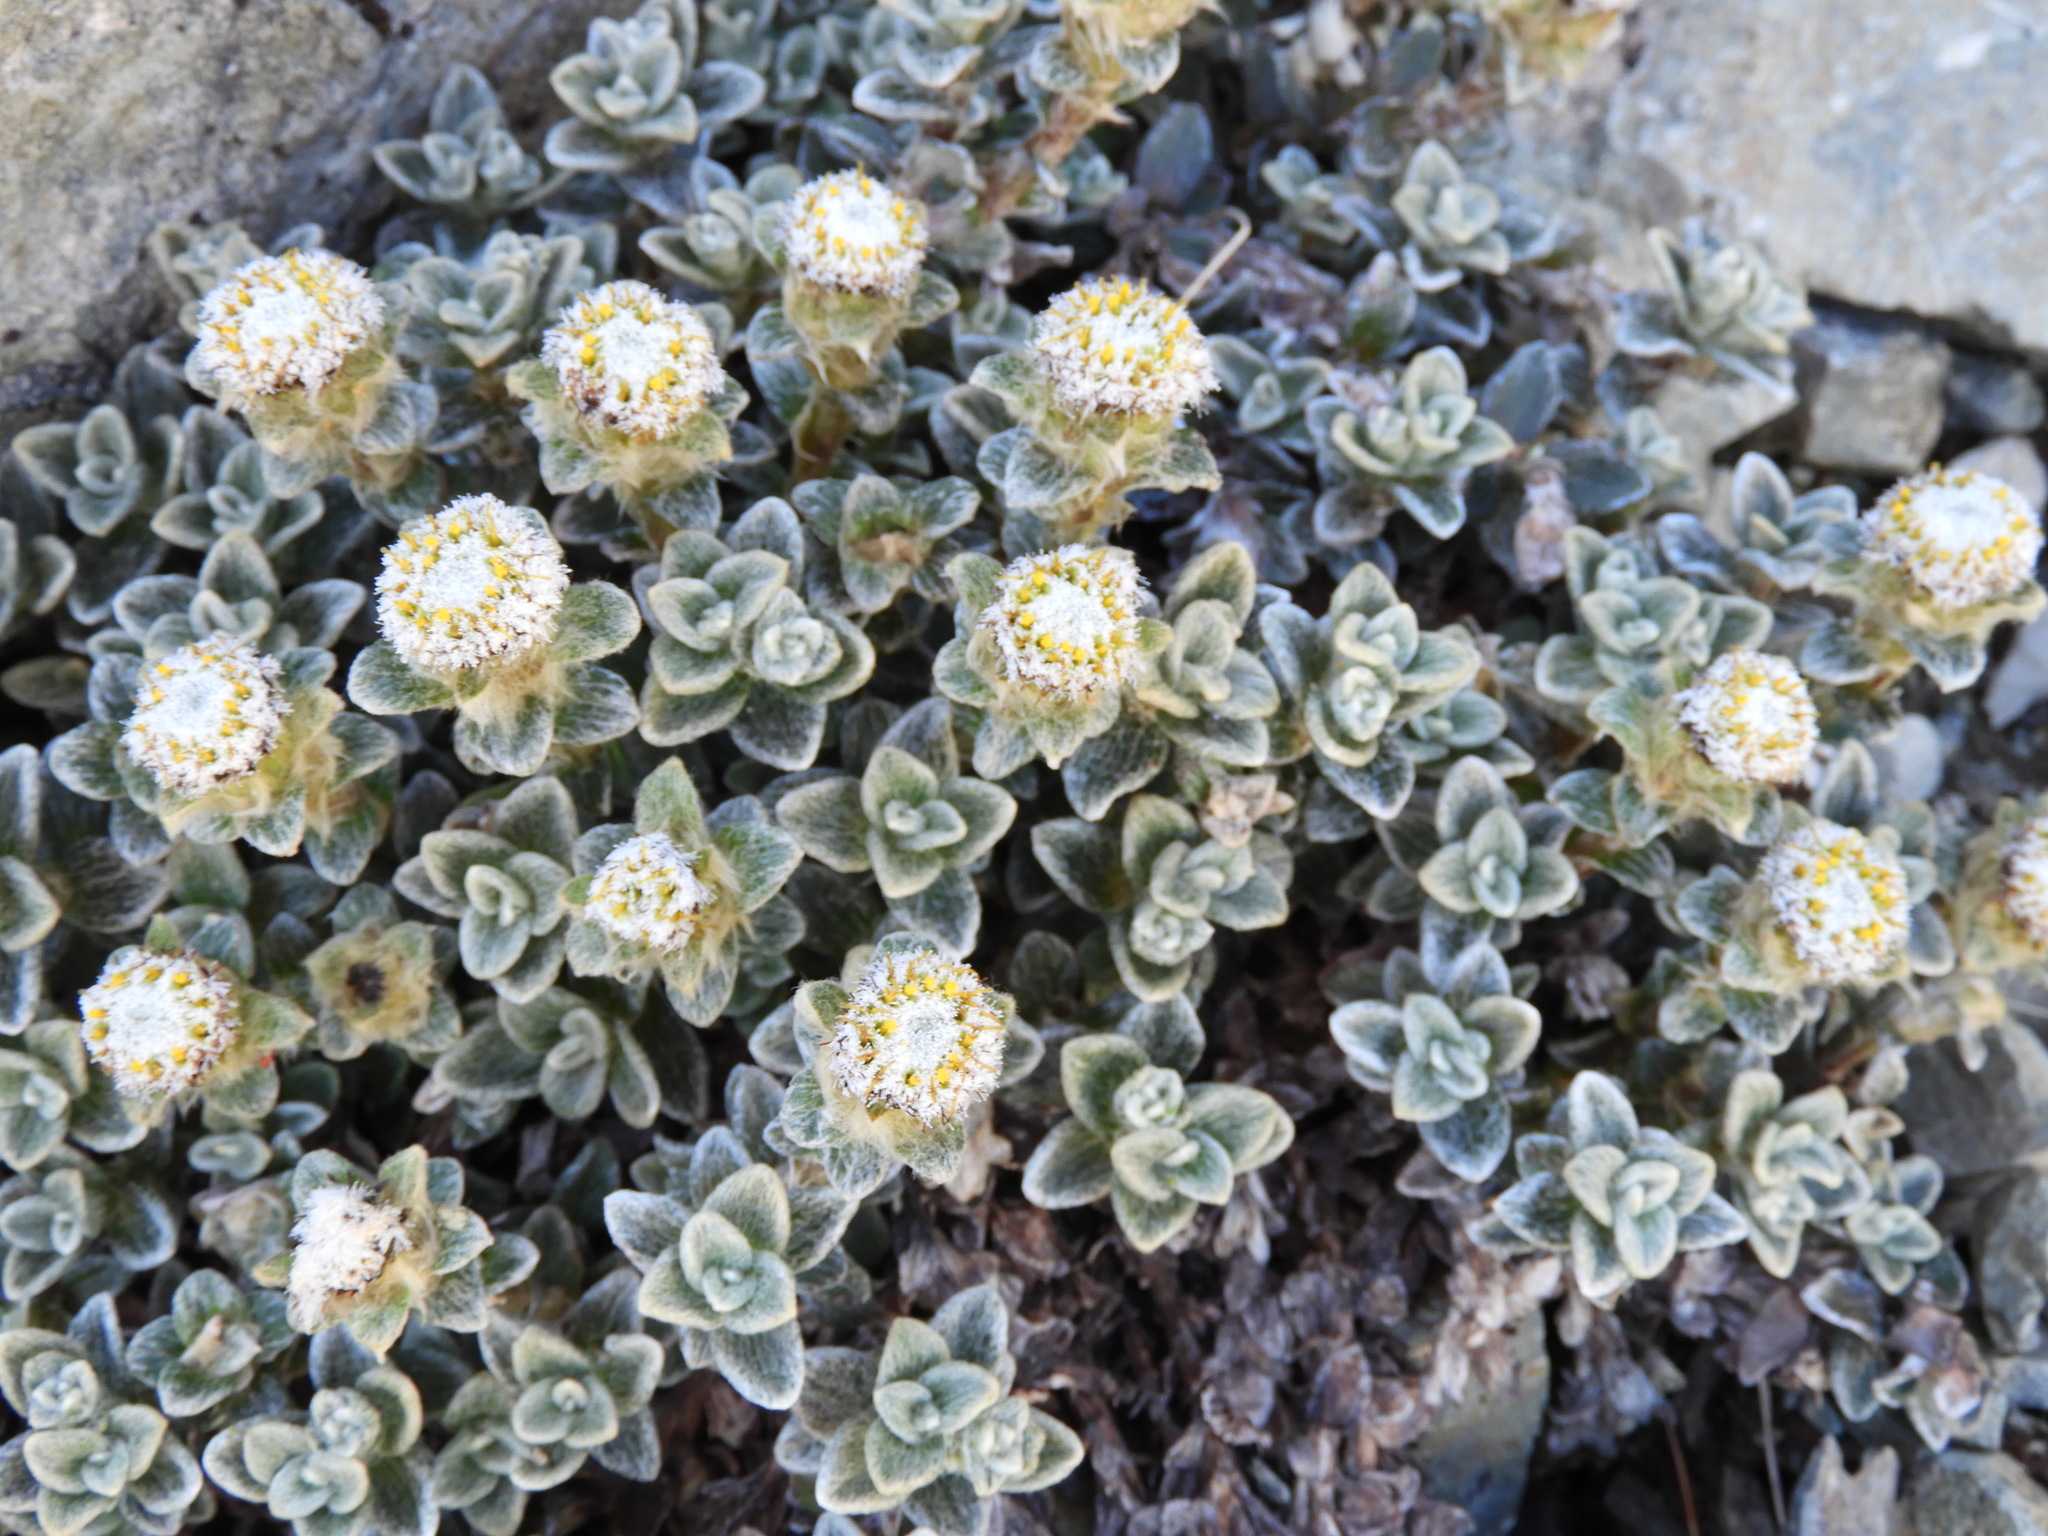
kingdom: Plantae
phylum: Tracheophyta
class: Magnoliopsida
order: Asterales
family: Asteraceae
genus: Haastia
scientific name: Haastia sinclairii
